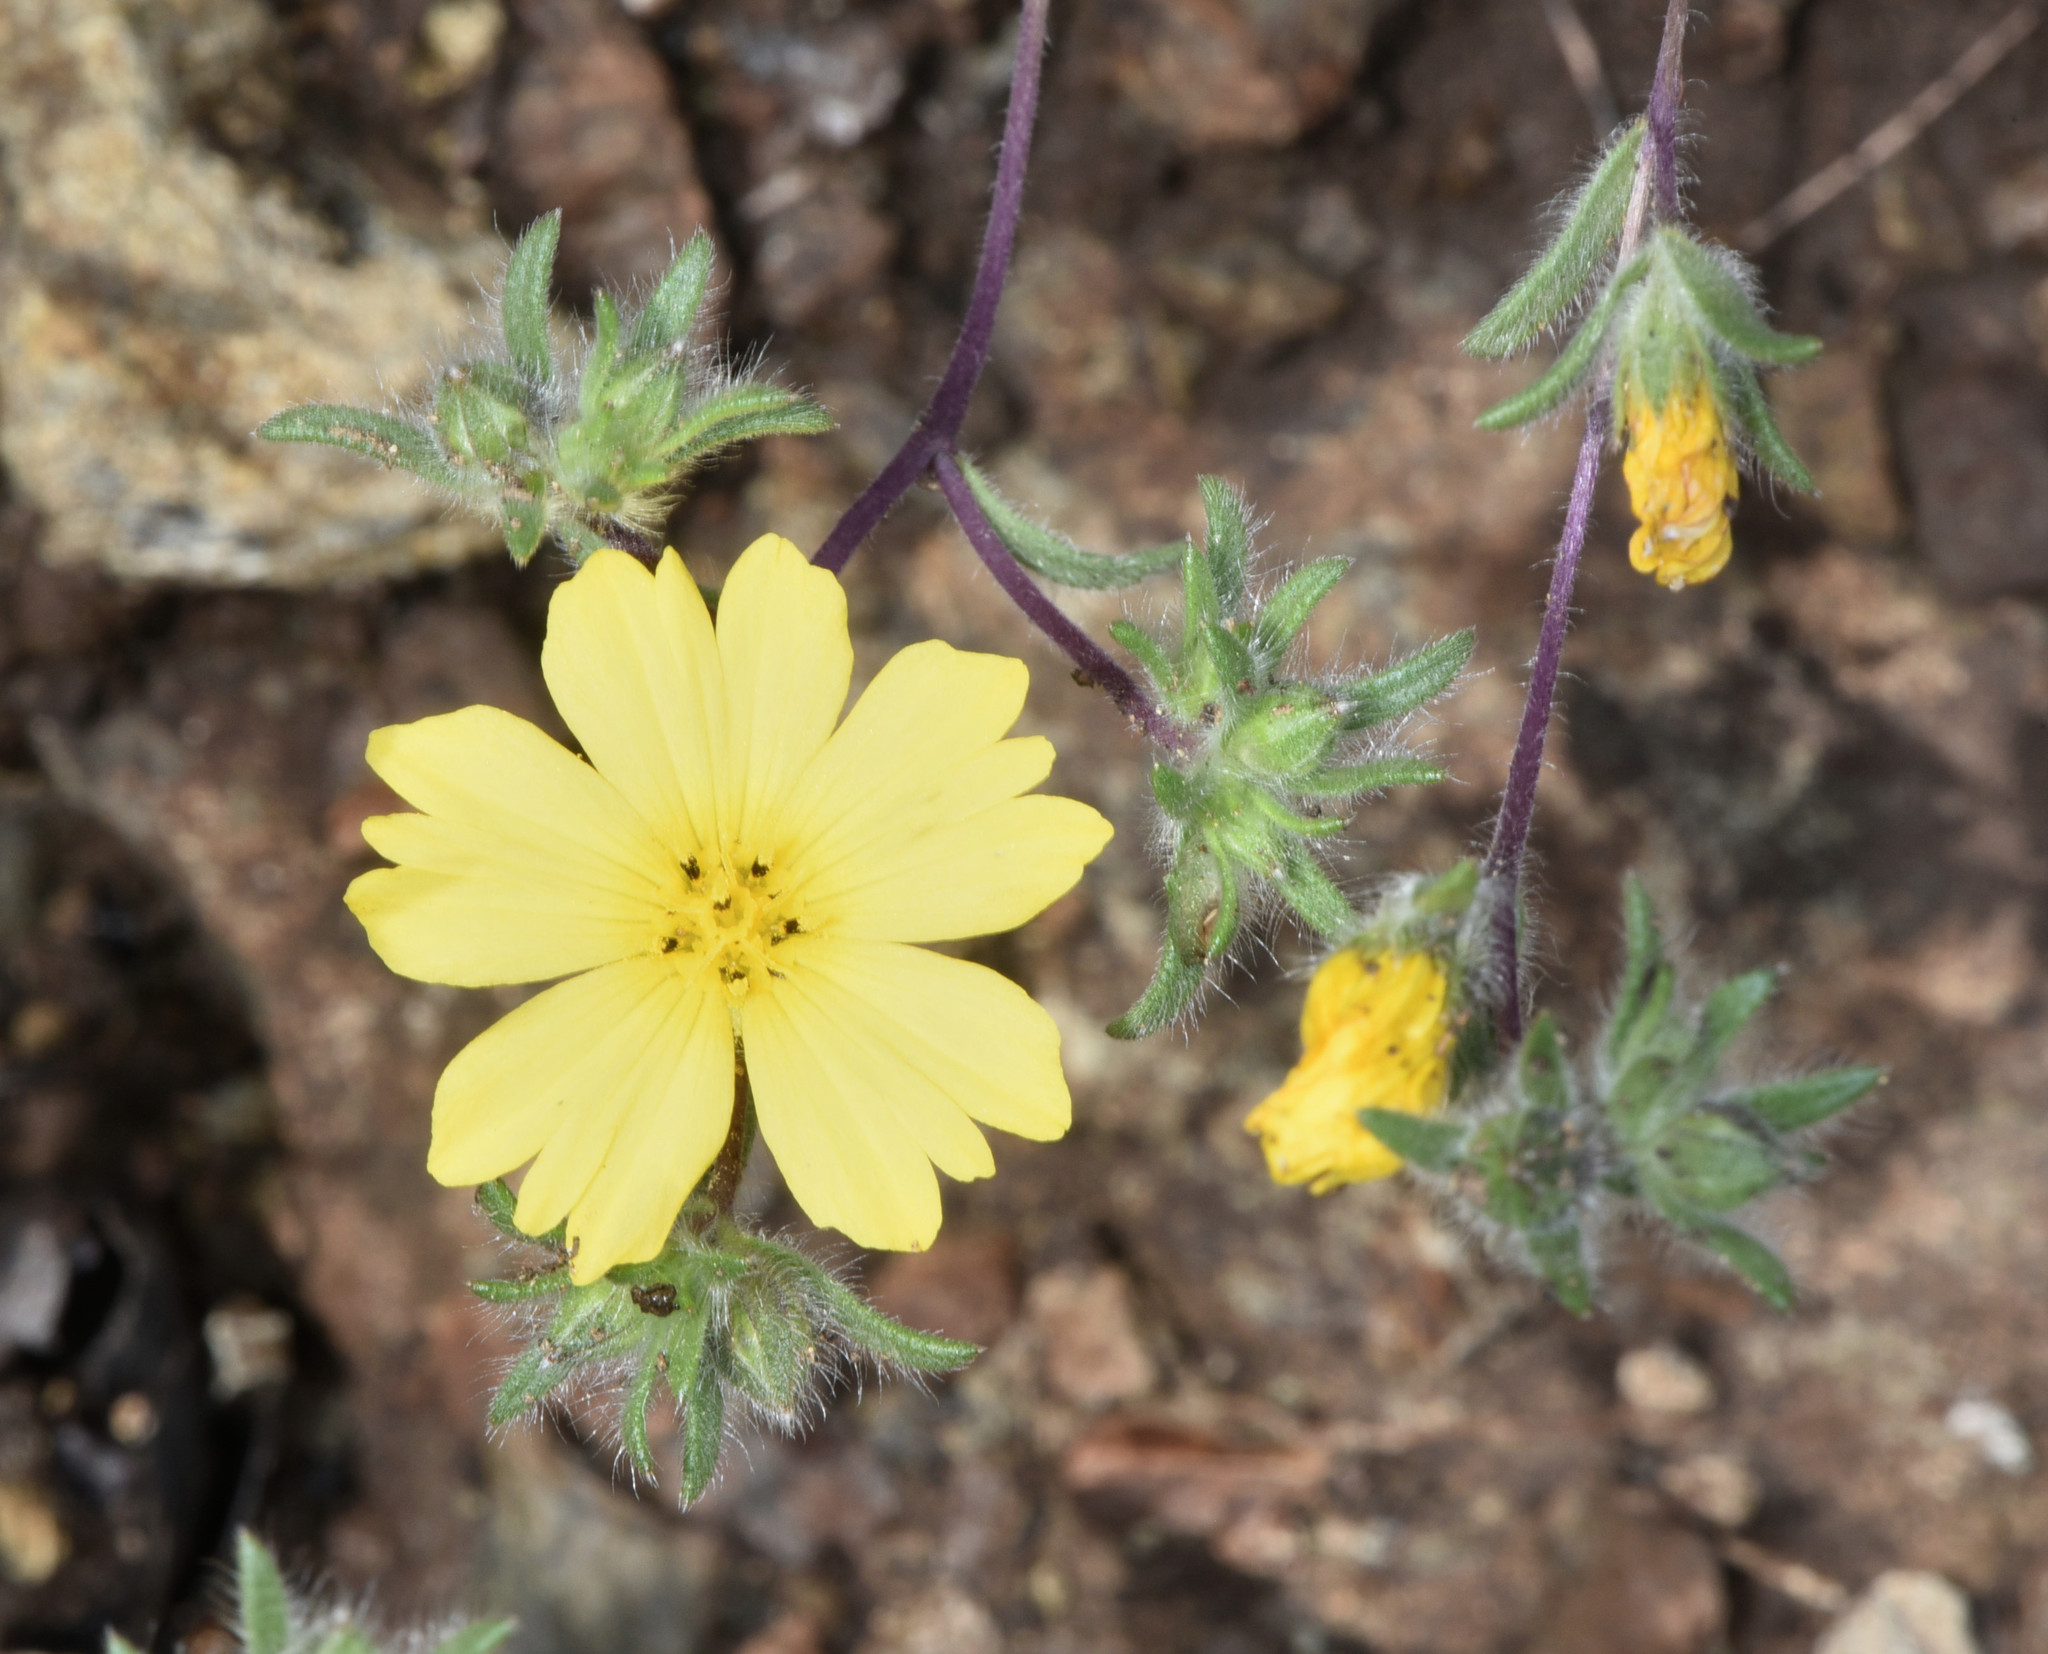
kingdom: Plantae
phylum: Tracheophyta
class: Magnoliopsida
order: Asterales
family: Asteraceae
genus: Lagophylla
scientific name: Lagophylla minor
